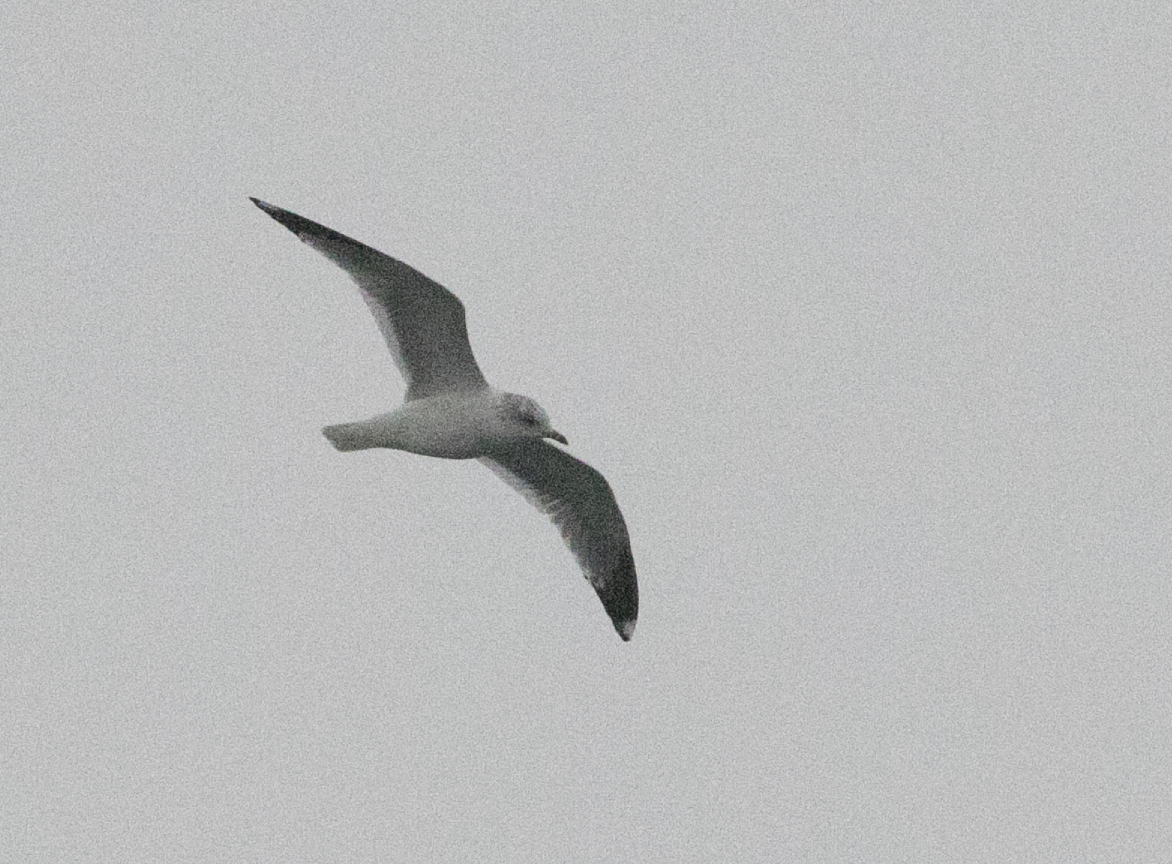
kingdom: Animalia
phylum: Chordata
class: Aves
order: Charadriiformes
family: Laridae
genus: Larus
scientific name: Larus canus
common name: Mew gull
